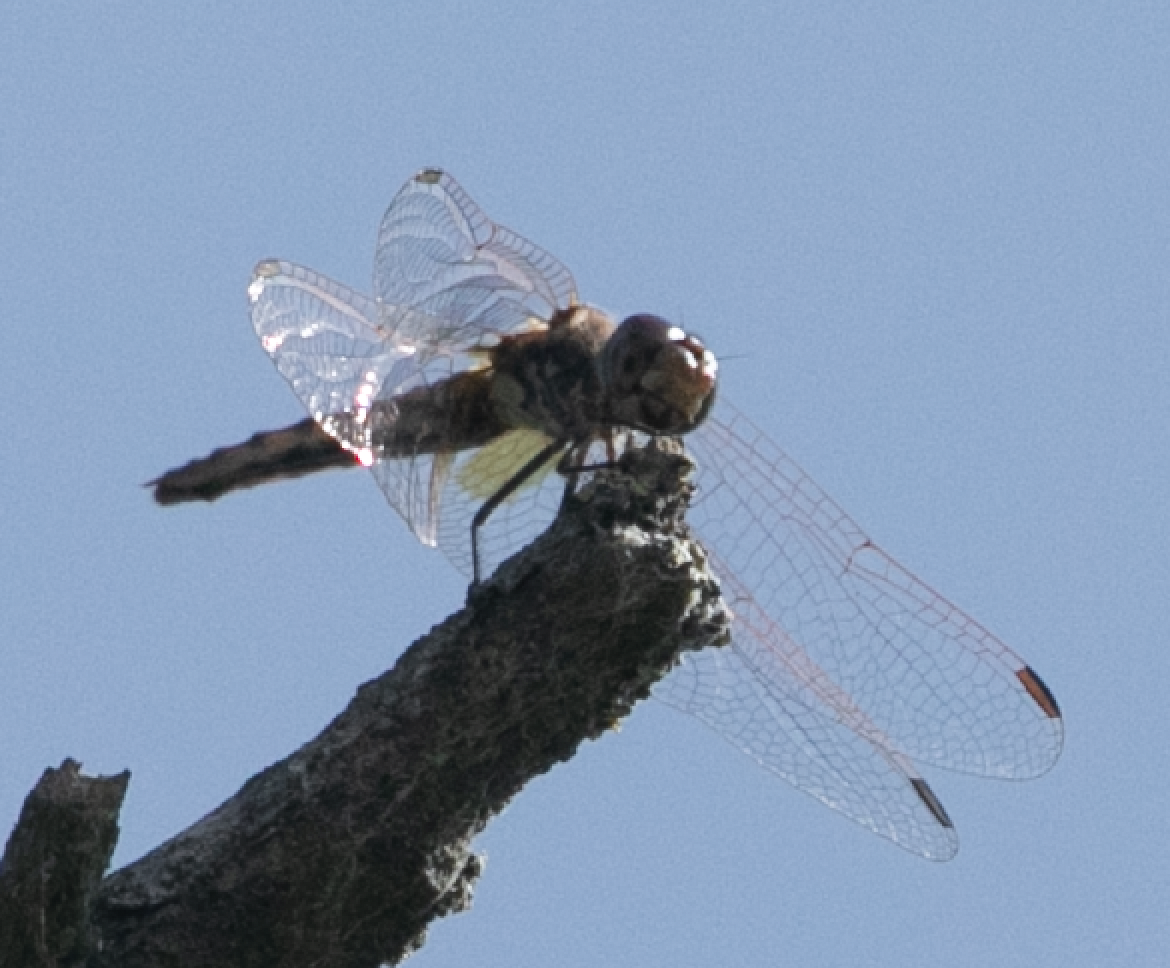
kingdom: Animalia
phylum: Arthropoda
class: Insecta
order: Odonata
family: Libellulidae
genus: Trithemis
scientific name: Trithemis annulata
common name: Violet dropwing
